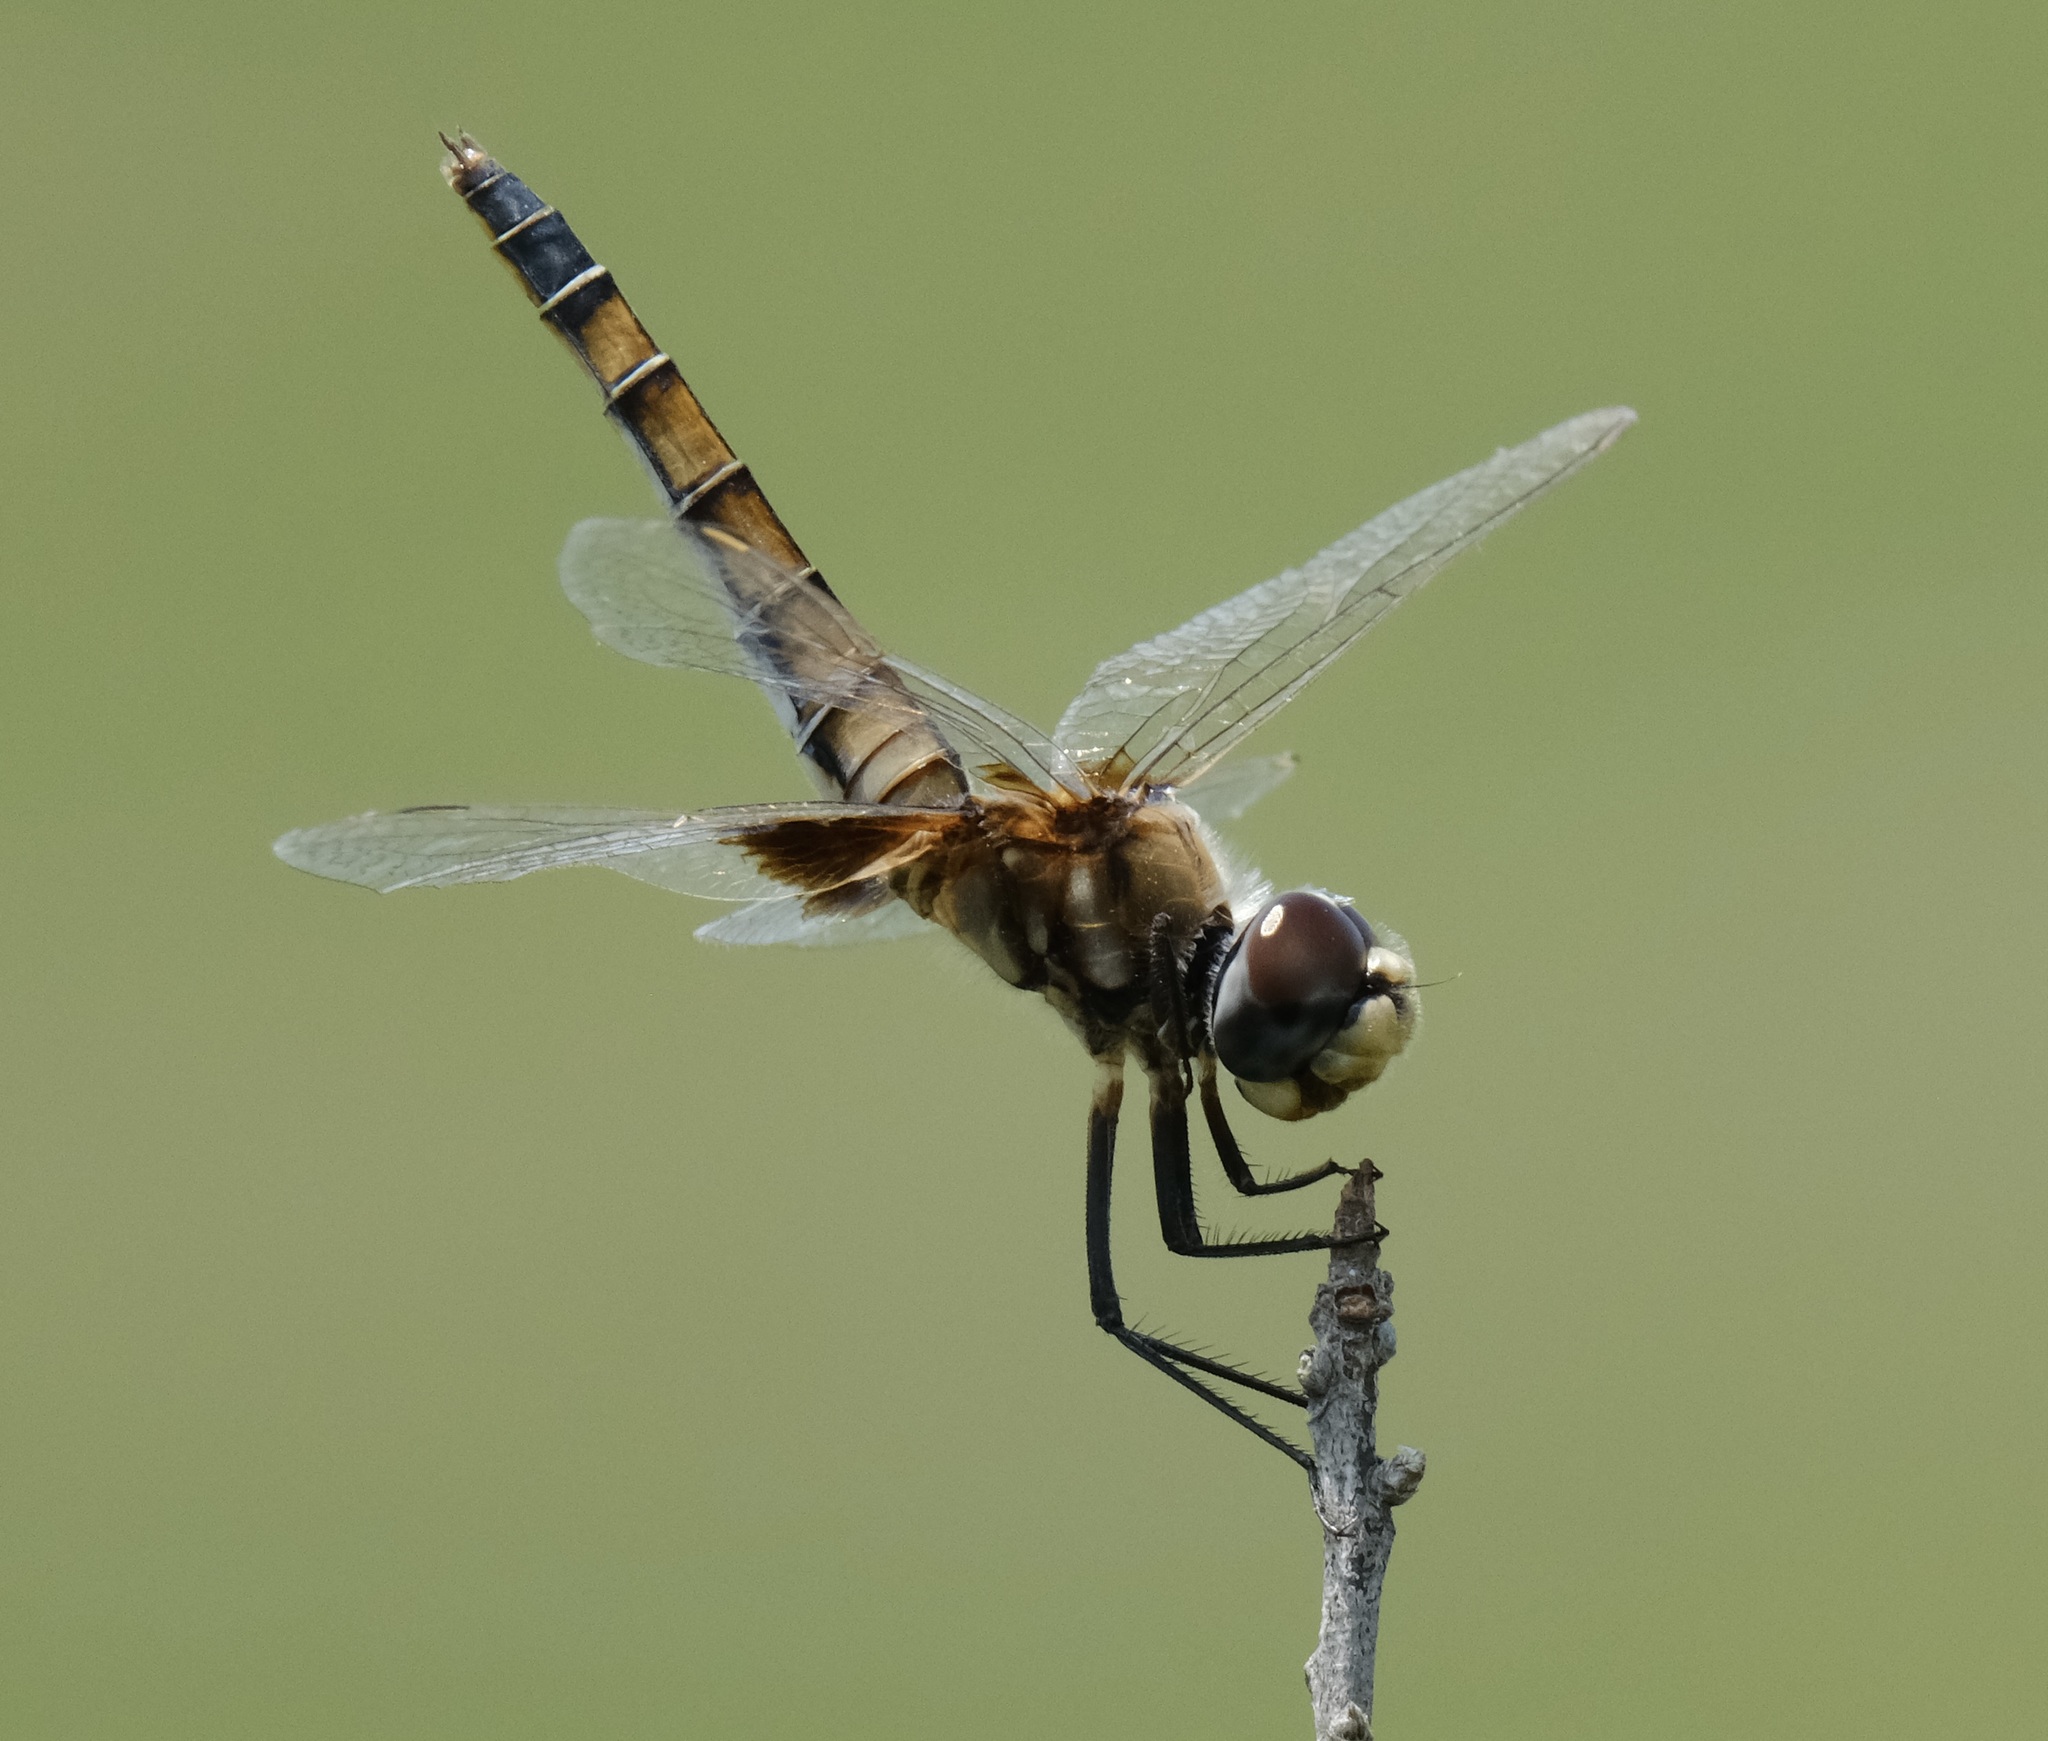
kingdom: Animalia
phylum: Arthropoda
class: Insecta
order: Odonata
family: Libellulidae
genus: Macrodiplax
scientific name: Macrodiplax balteata
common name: Marl pennant
